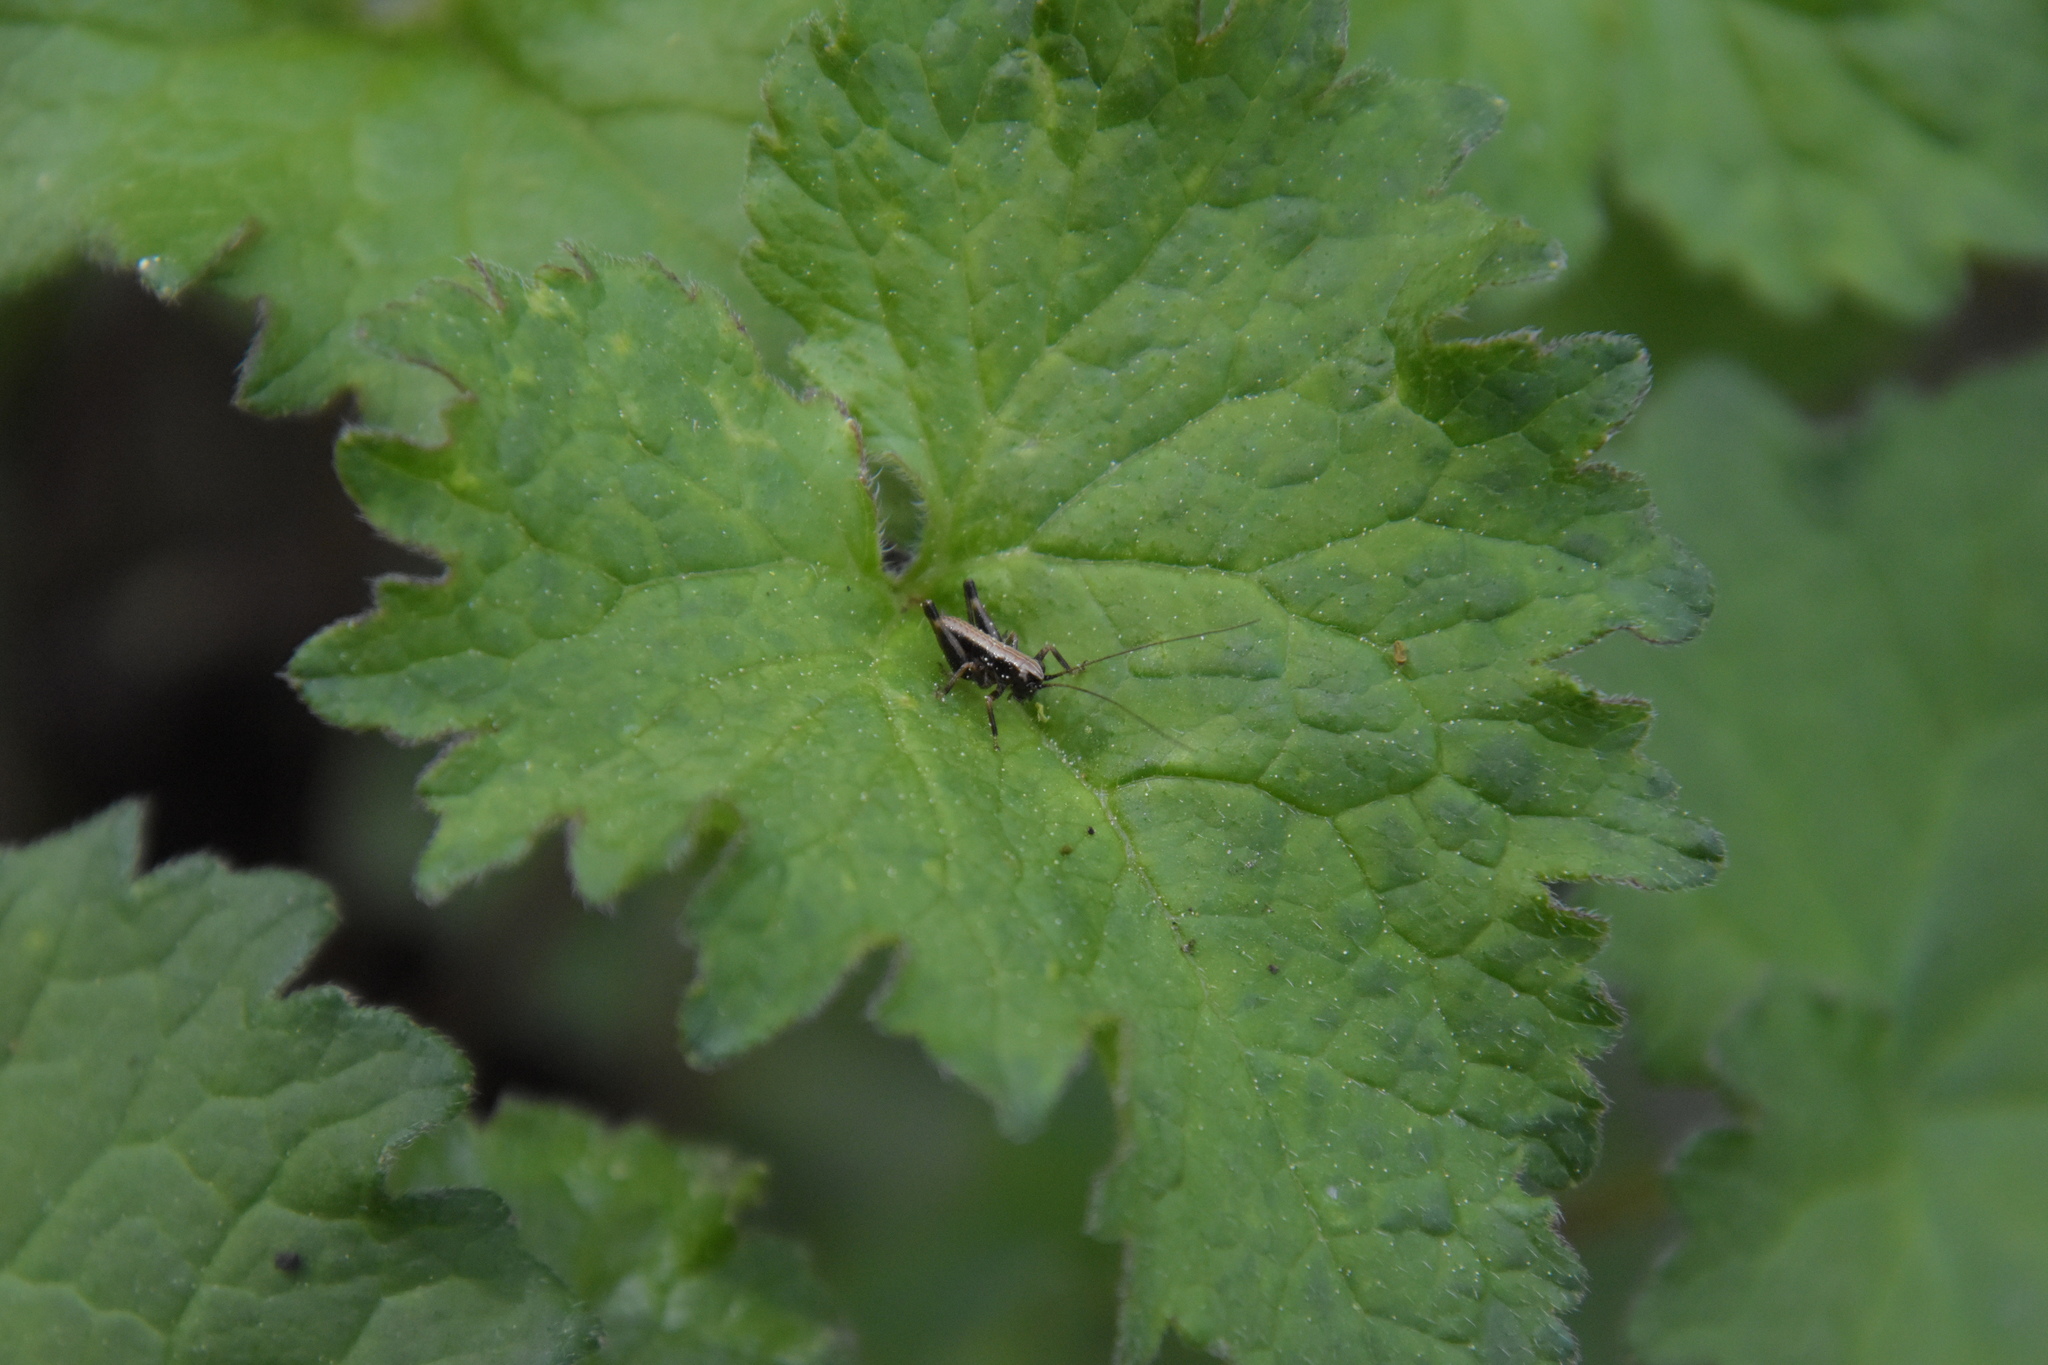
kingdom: Animalia
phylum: Arthropoda
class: Insecta
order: Orthoptera
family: Tettigoniidae
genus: Pholidoptera
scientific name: Pholidoptera griseoaptera
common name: Dark bush-cricket
